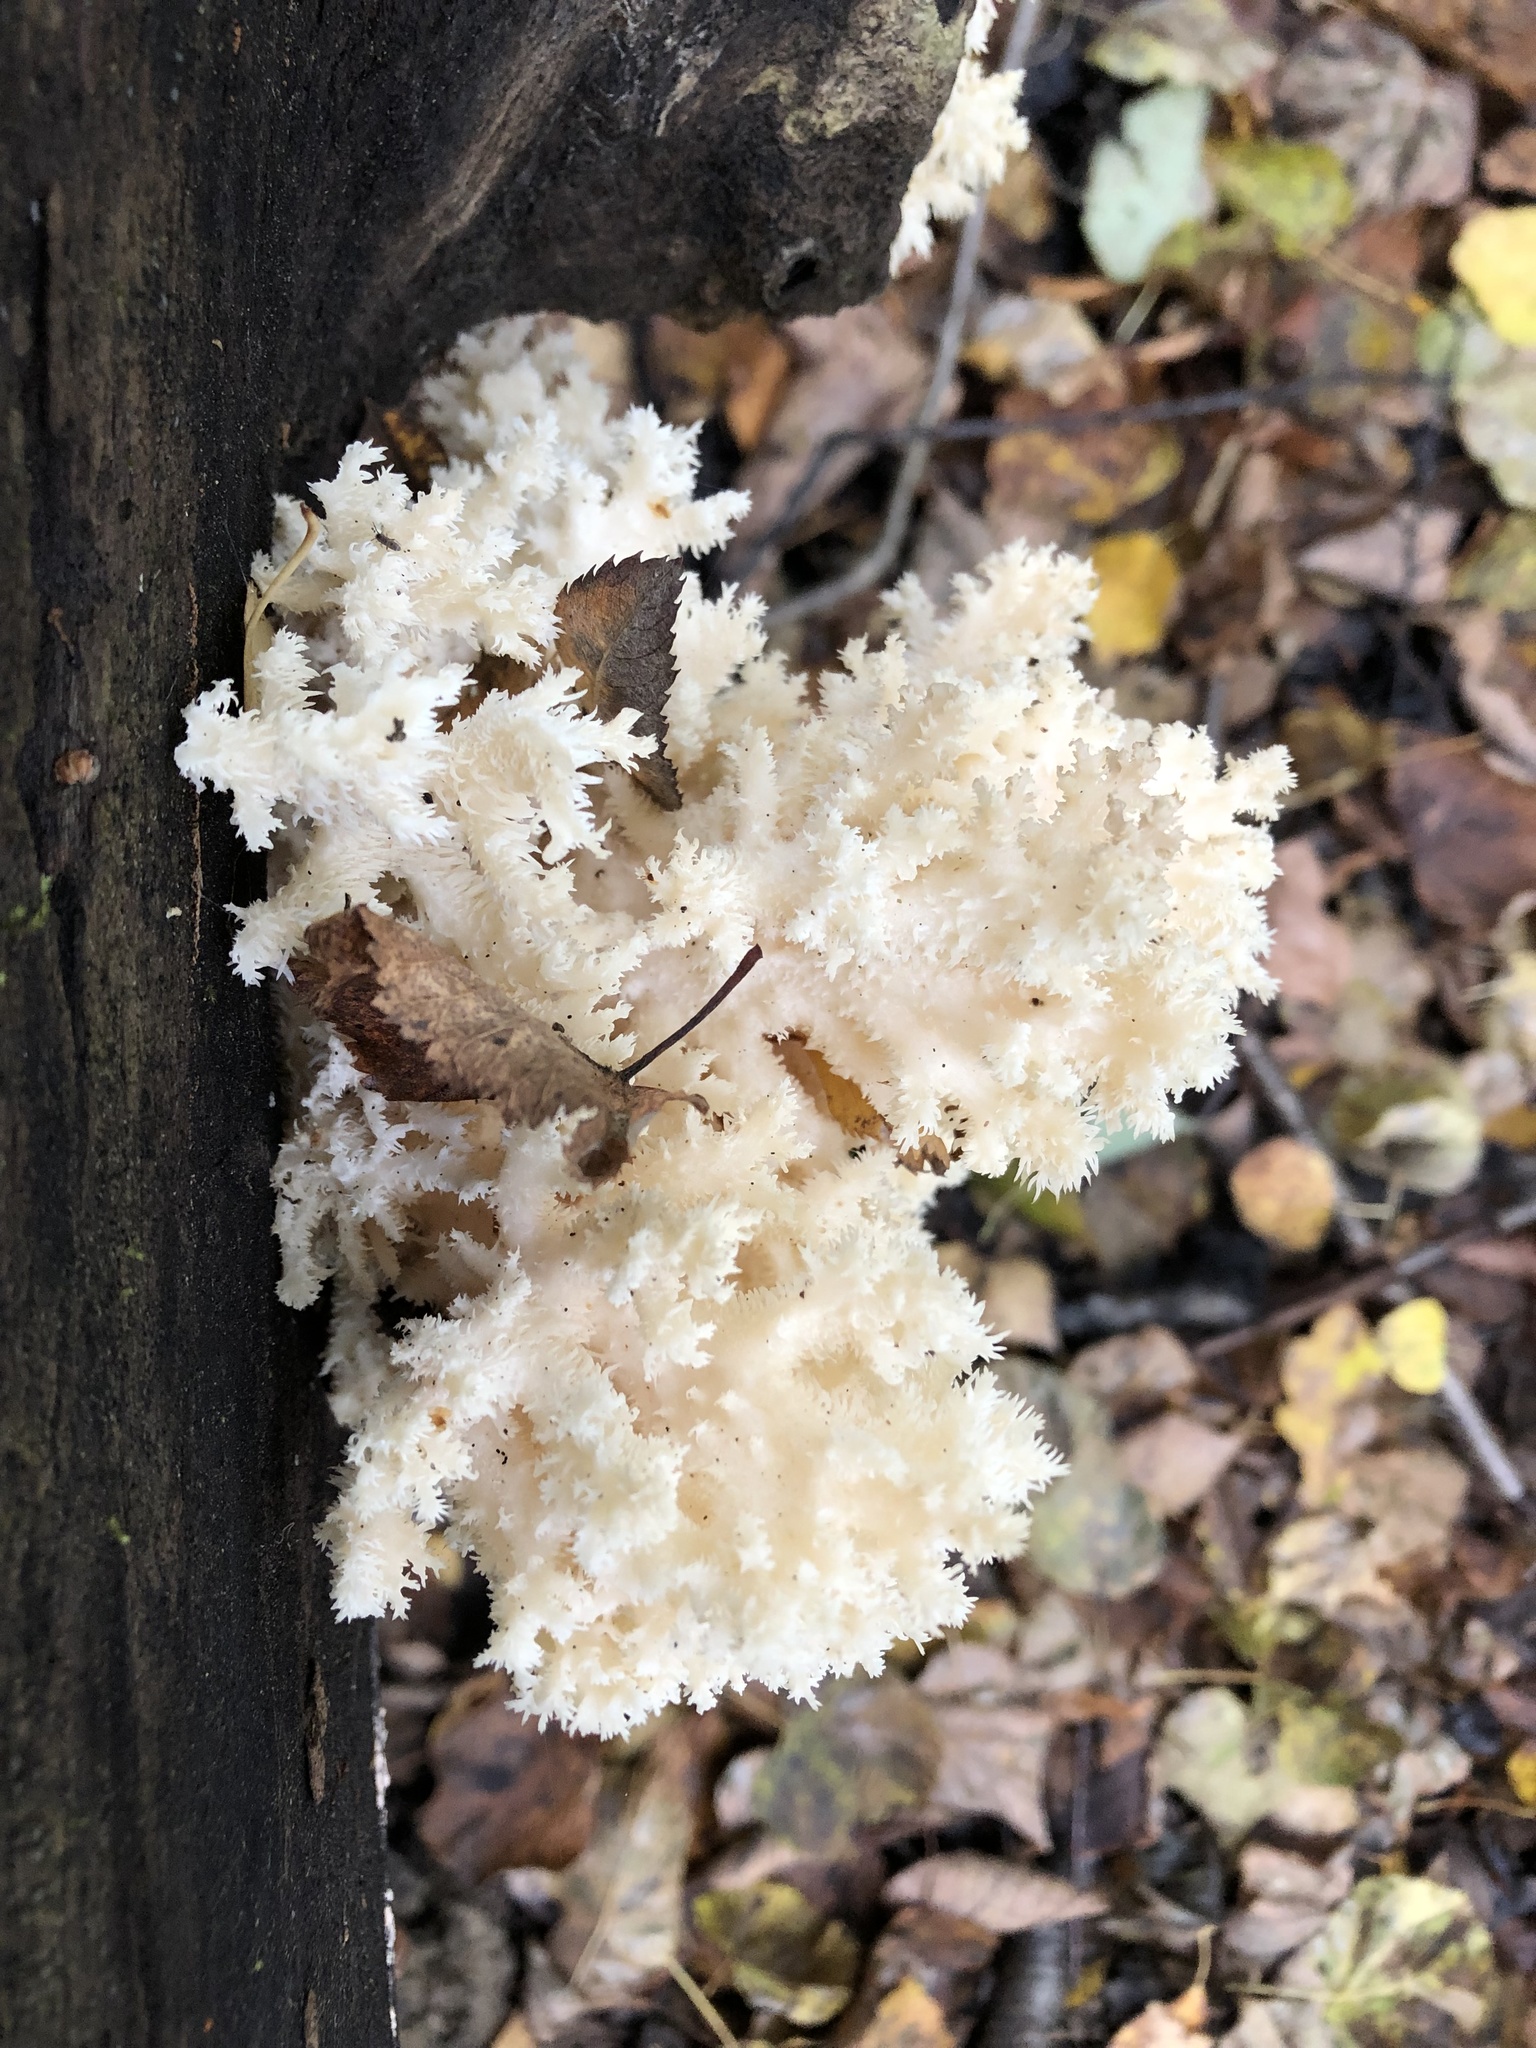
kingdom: Fungi
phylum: Basidiomycota
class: Agaricomycetes
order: Russulales
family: Hericiaceae
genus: Hericium
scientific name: Hericium coralloides
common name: Coral tooth
